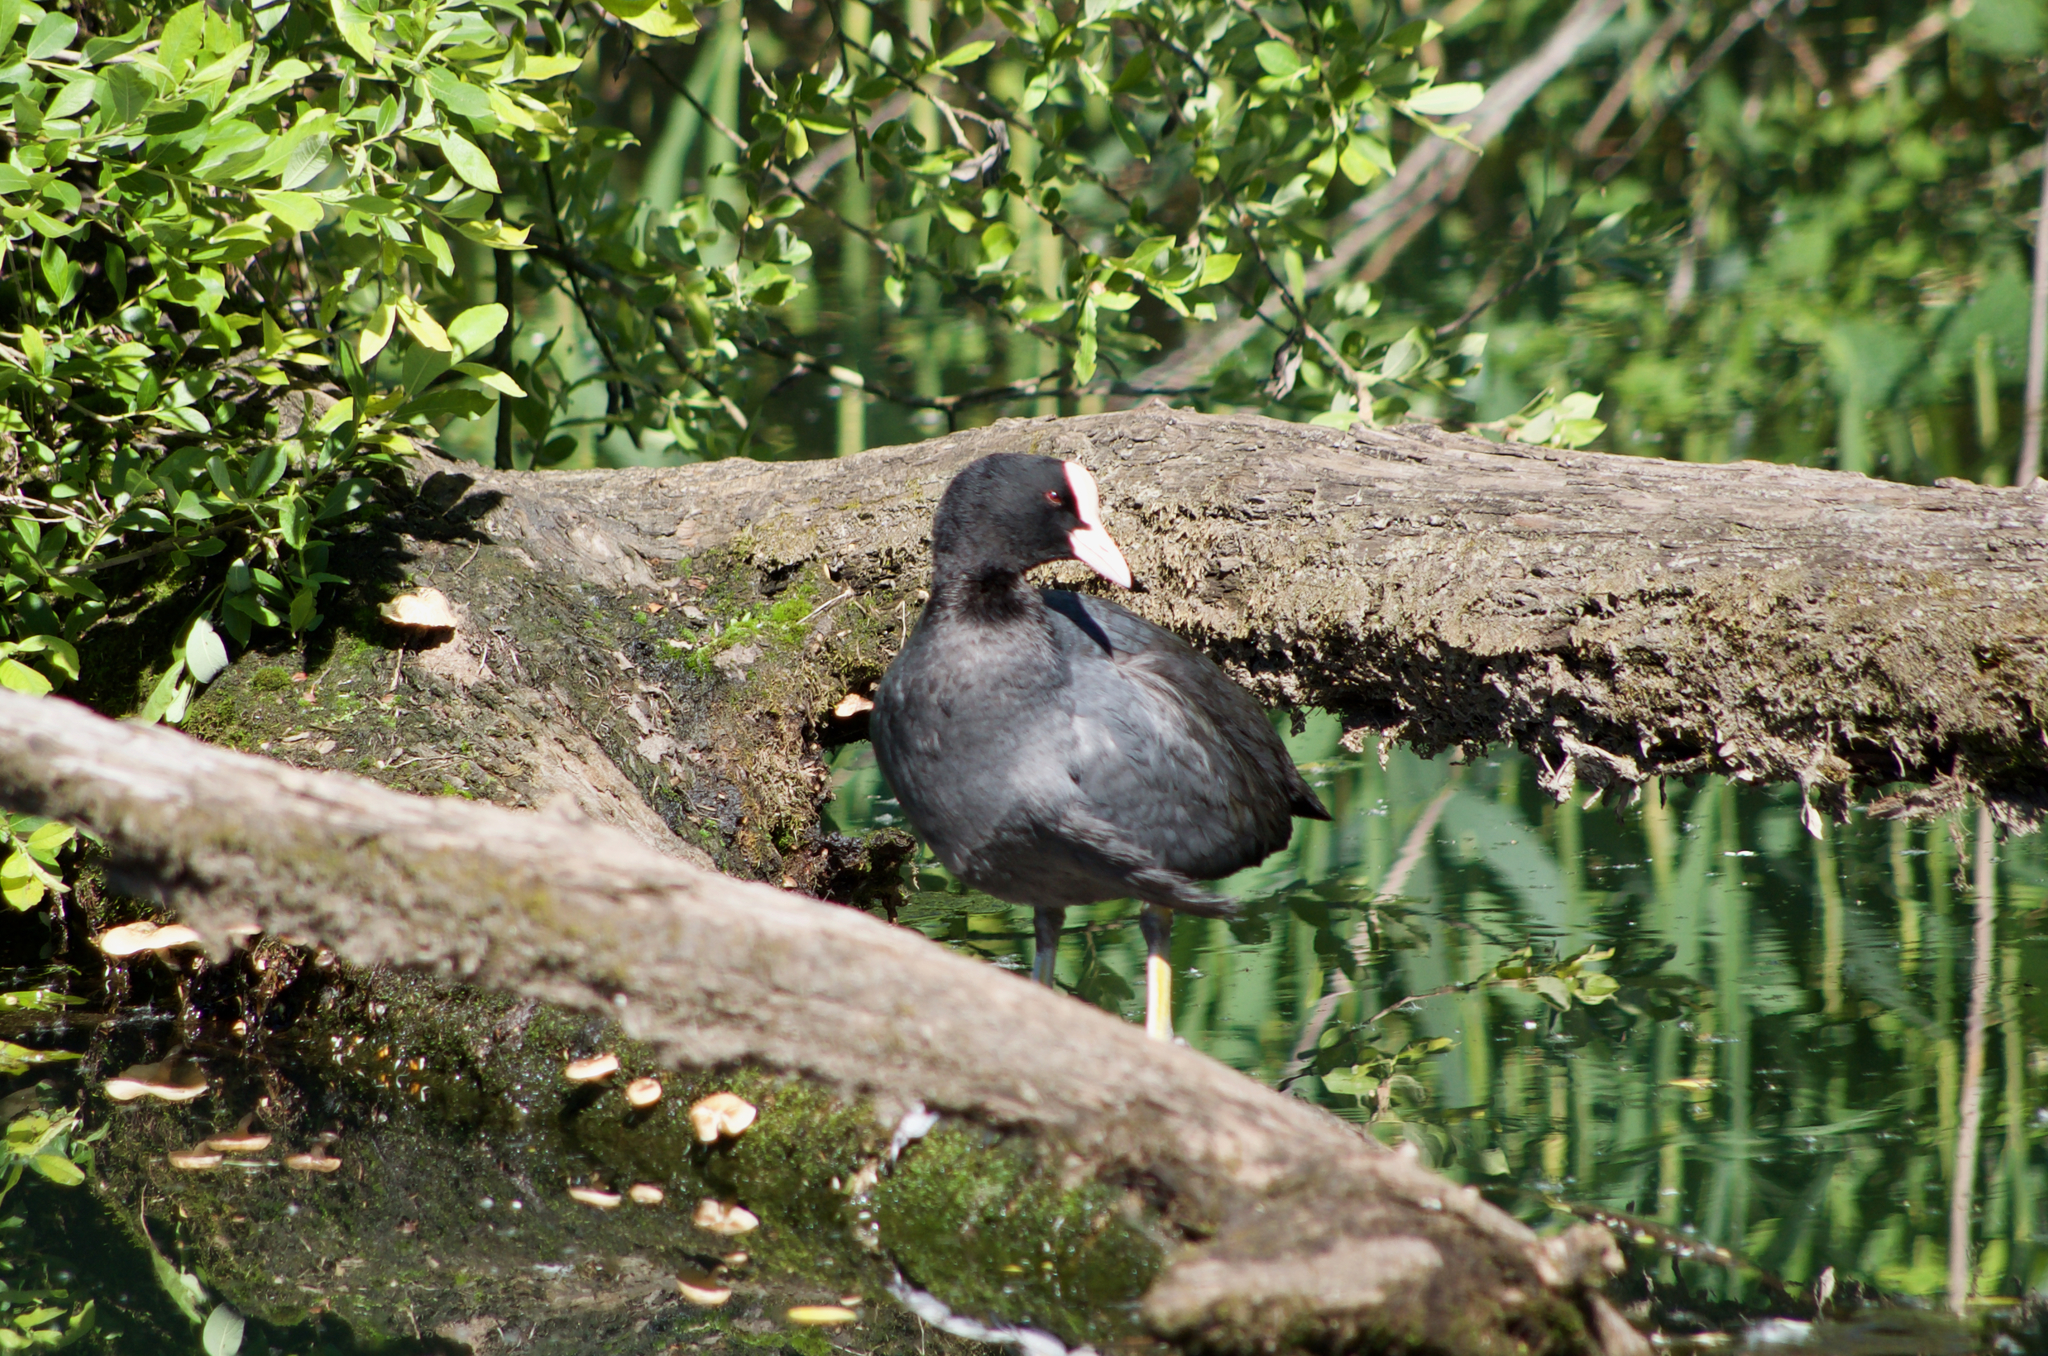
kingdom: Animalia
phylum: Chordata
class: Aves
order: Gruiformes
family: Rallidae
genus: Fulica
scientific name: Fulica atra
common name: Eurasian coot
